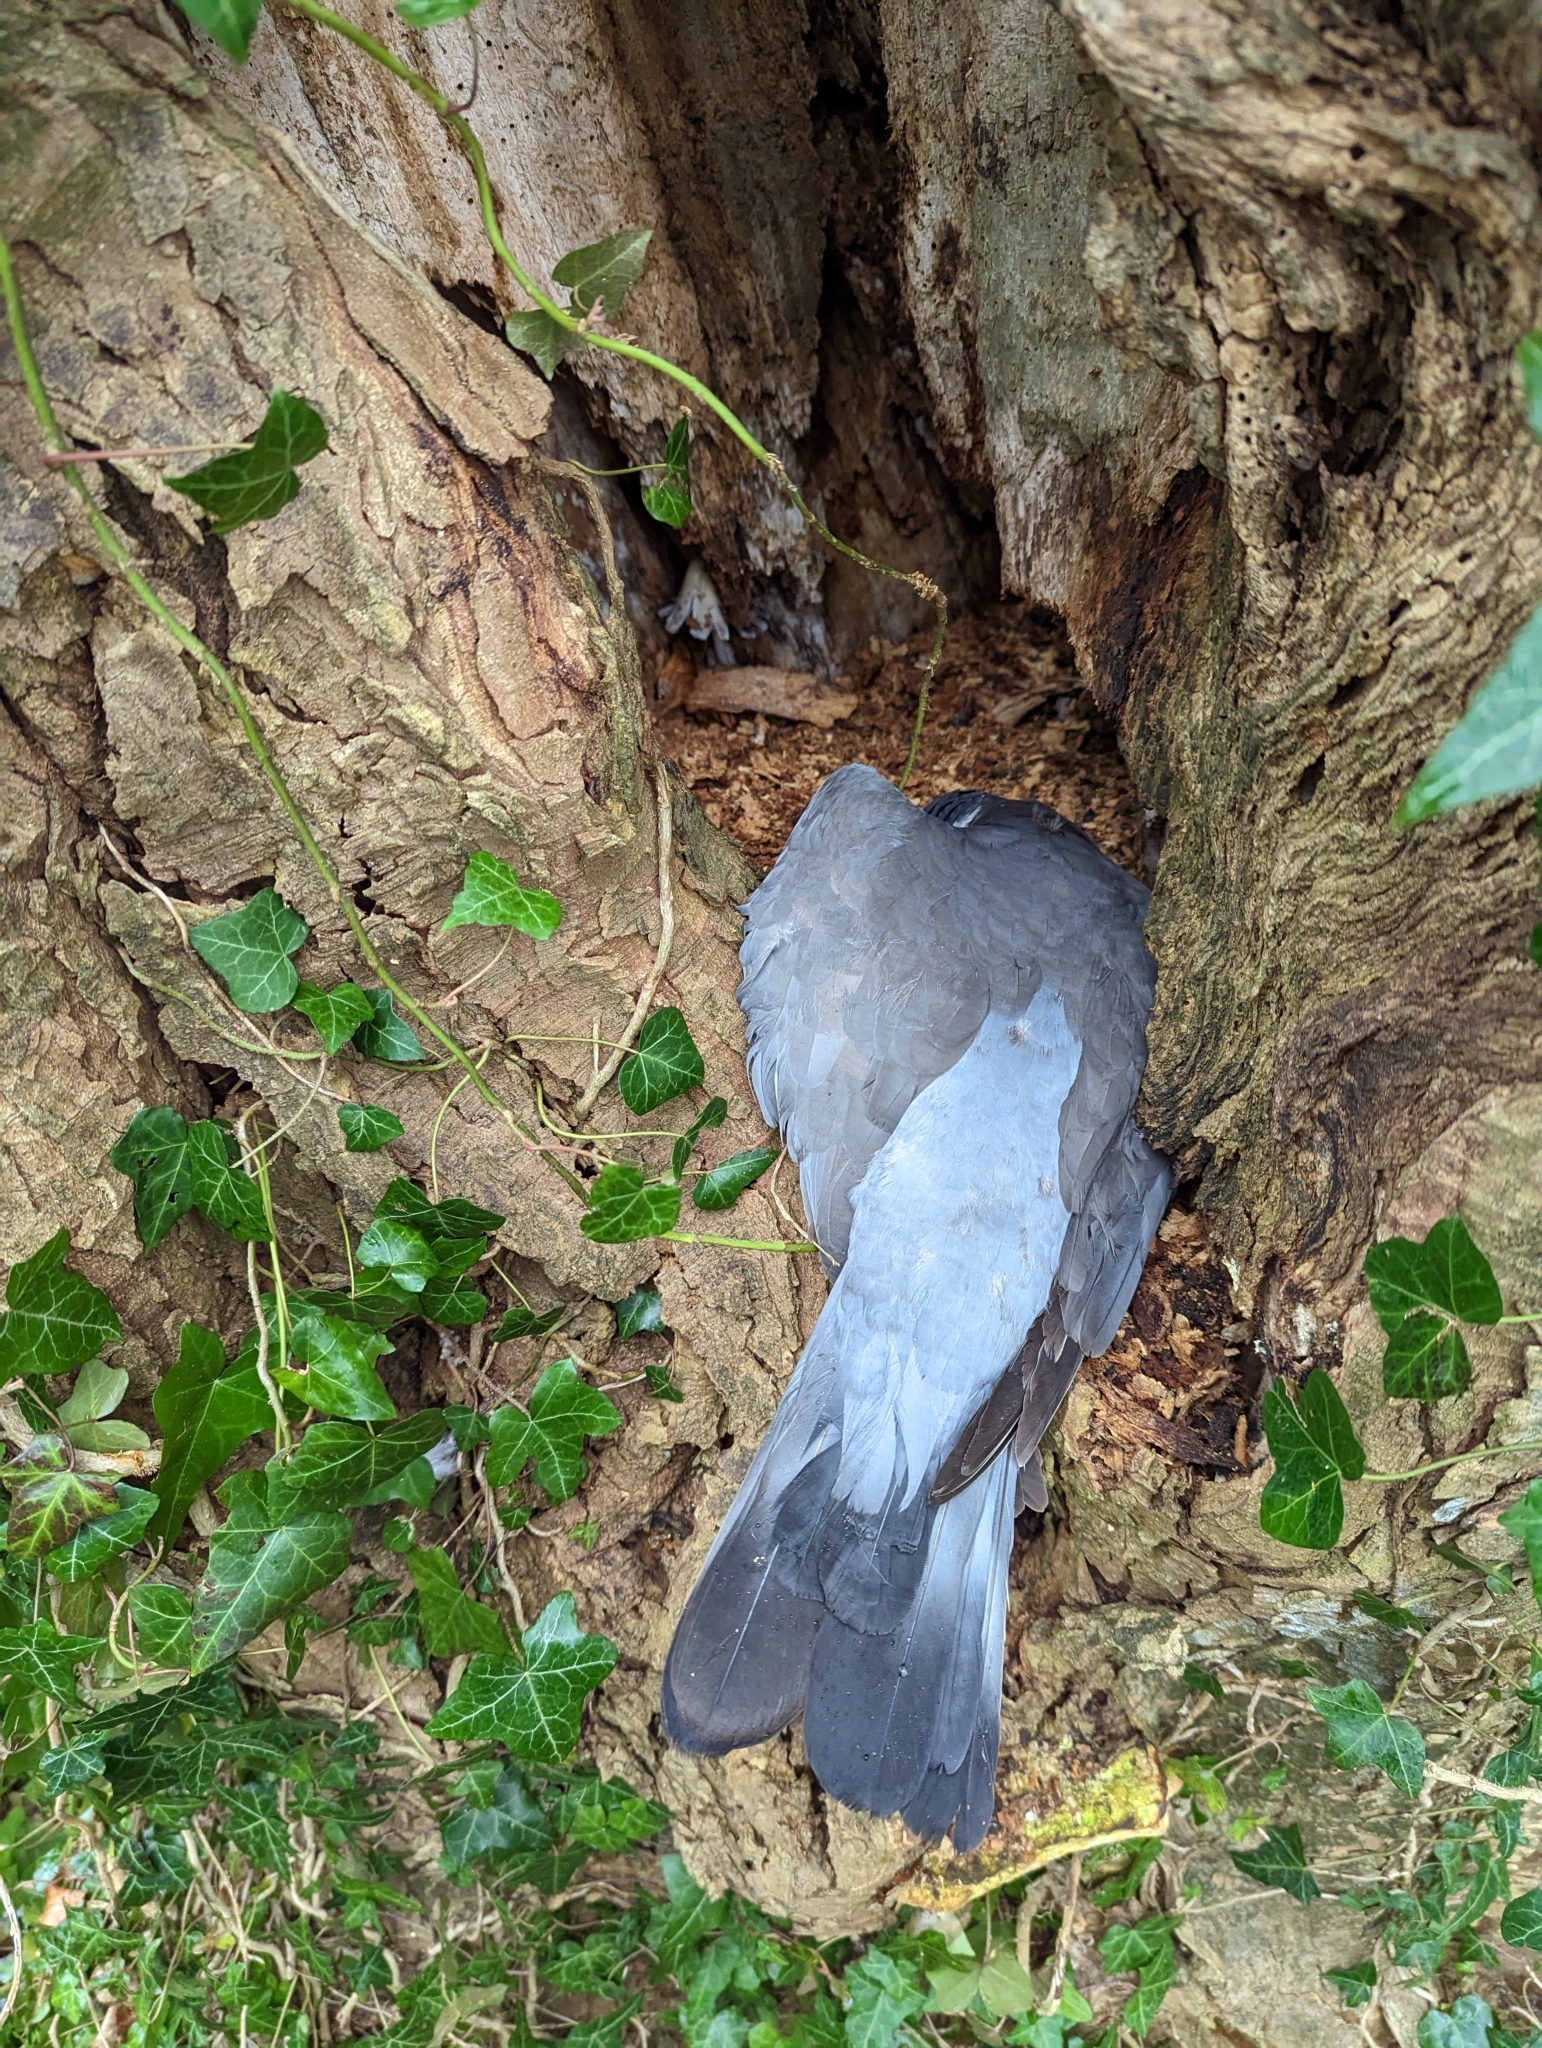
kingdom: Animalia
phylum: Chordata
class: Aves
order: Columbiformes
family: Columbidae
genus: Columba
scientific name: Columba palumbus
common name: Common wood pigeon
